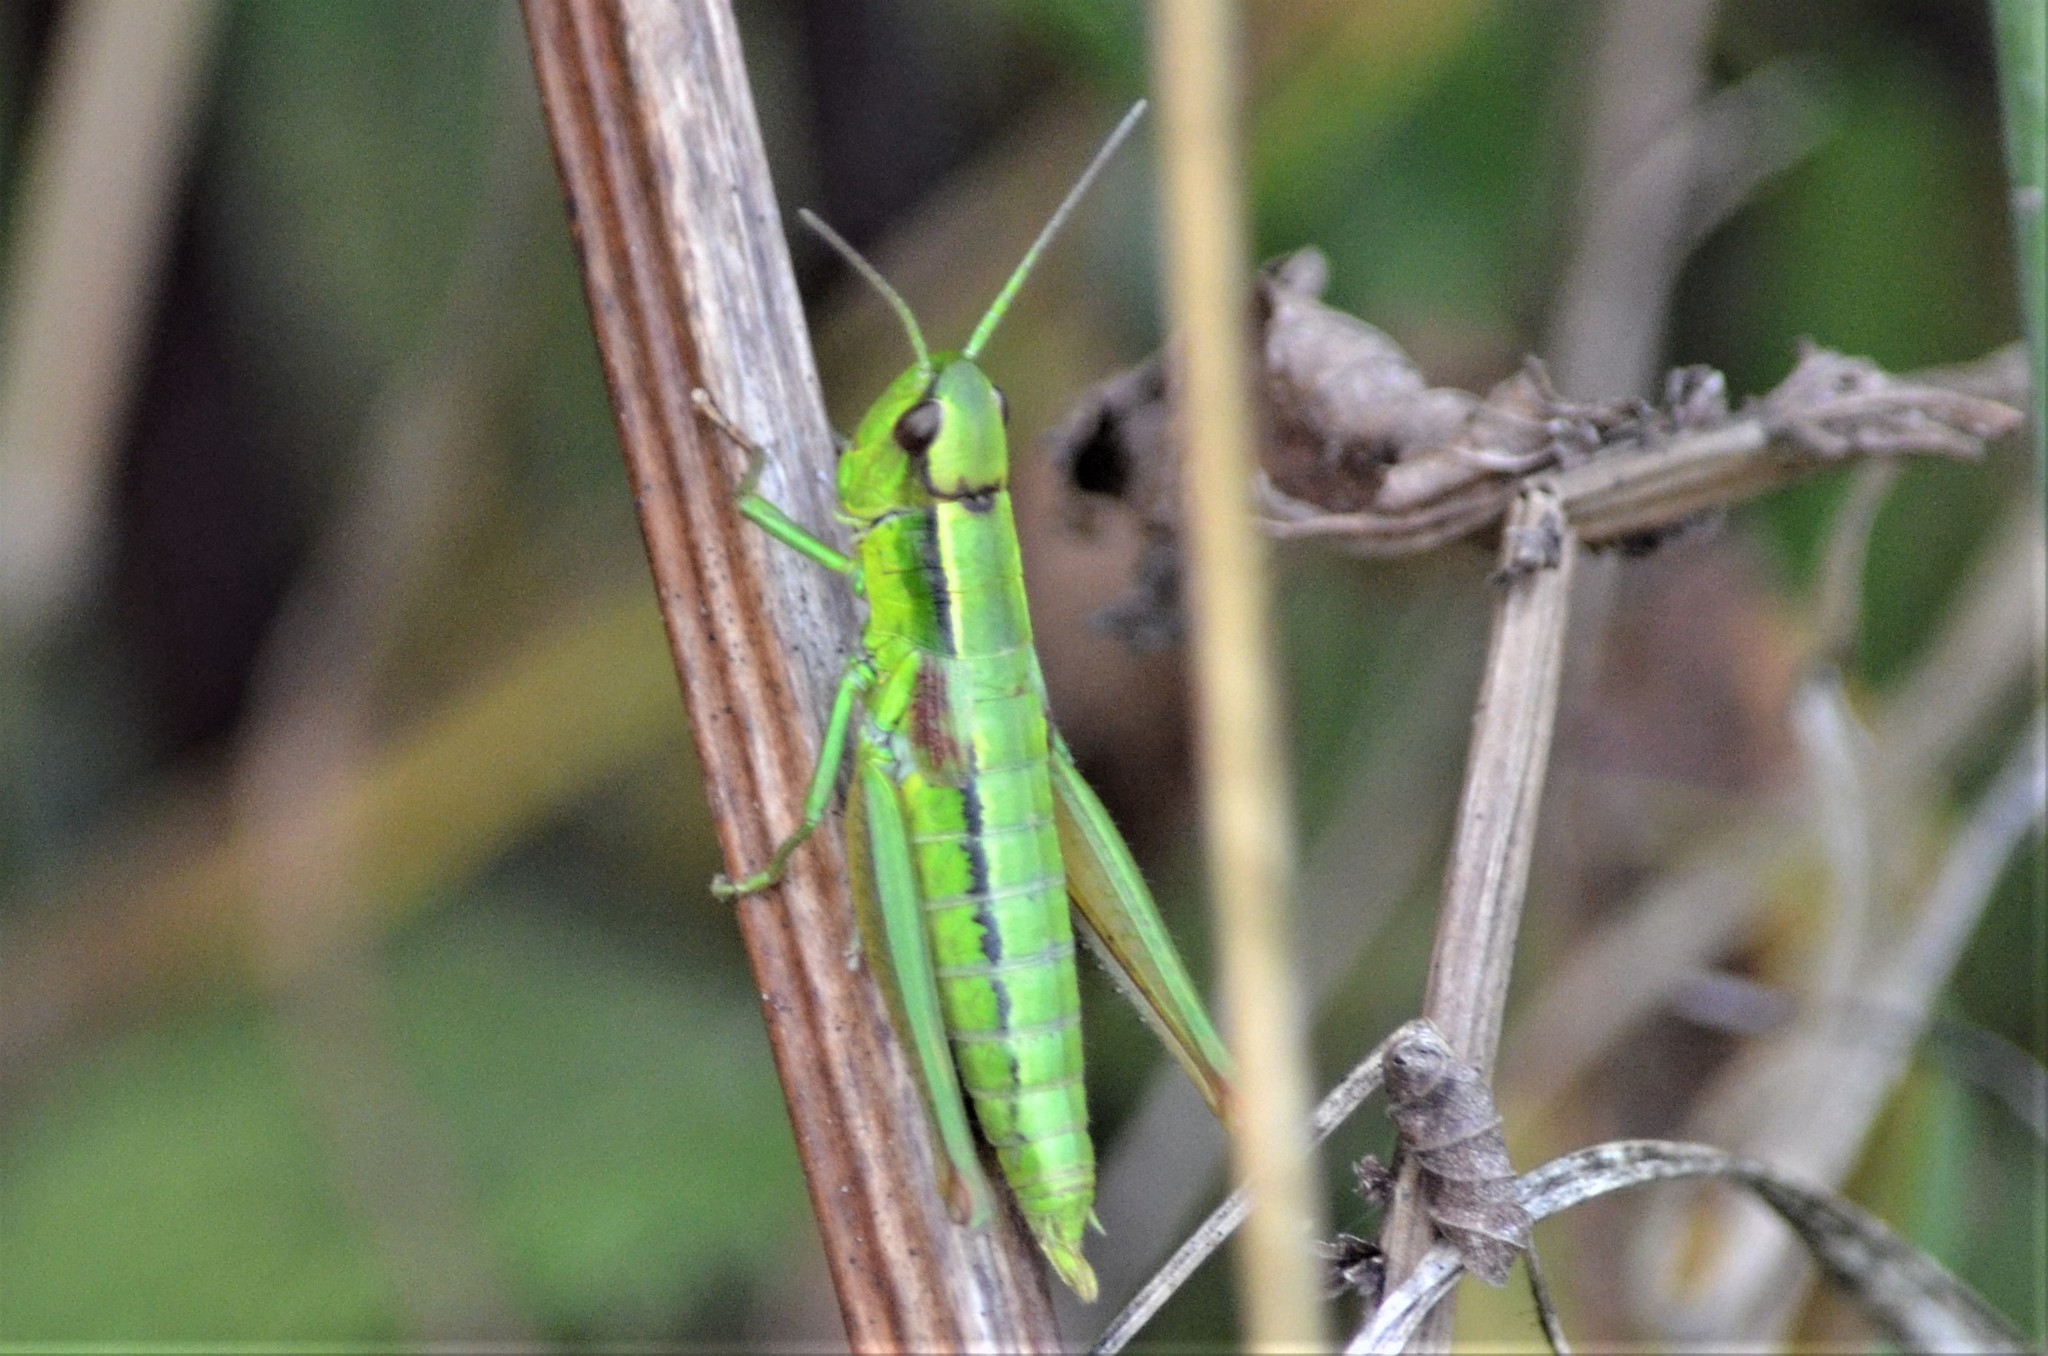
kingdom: Animalia
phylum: Arthropoda
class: Insecta
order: Orthoptera
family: Acrididae
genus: Euthystira
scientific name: Euthystira brachyptera
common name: Small gold grasshopper
